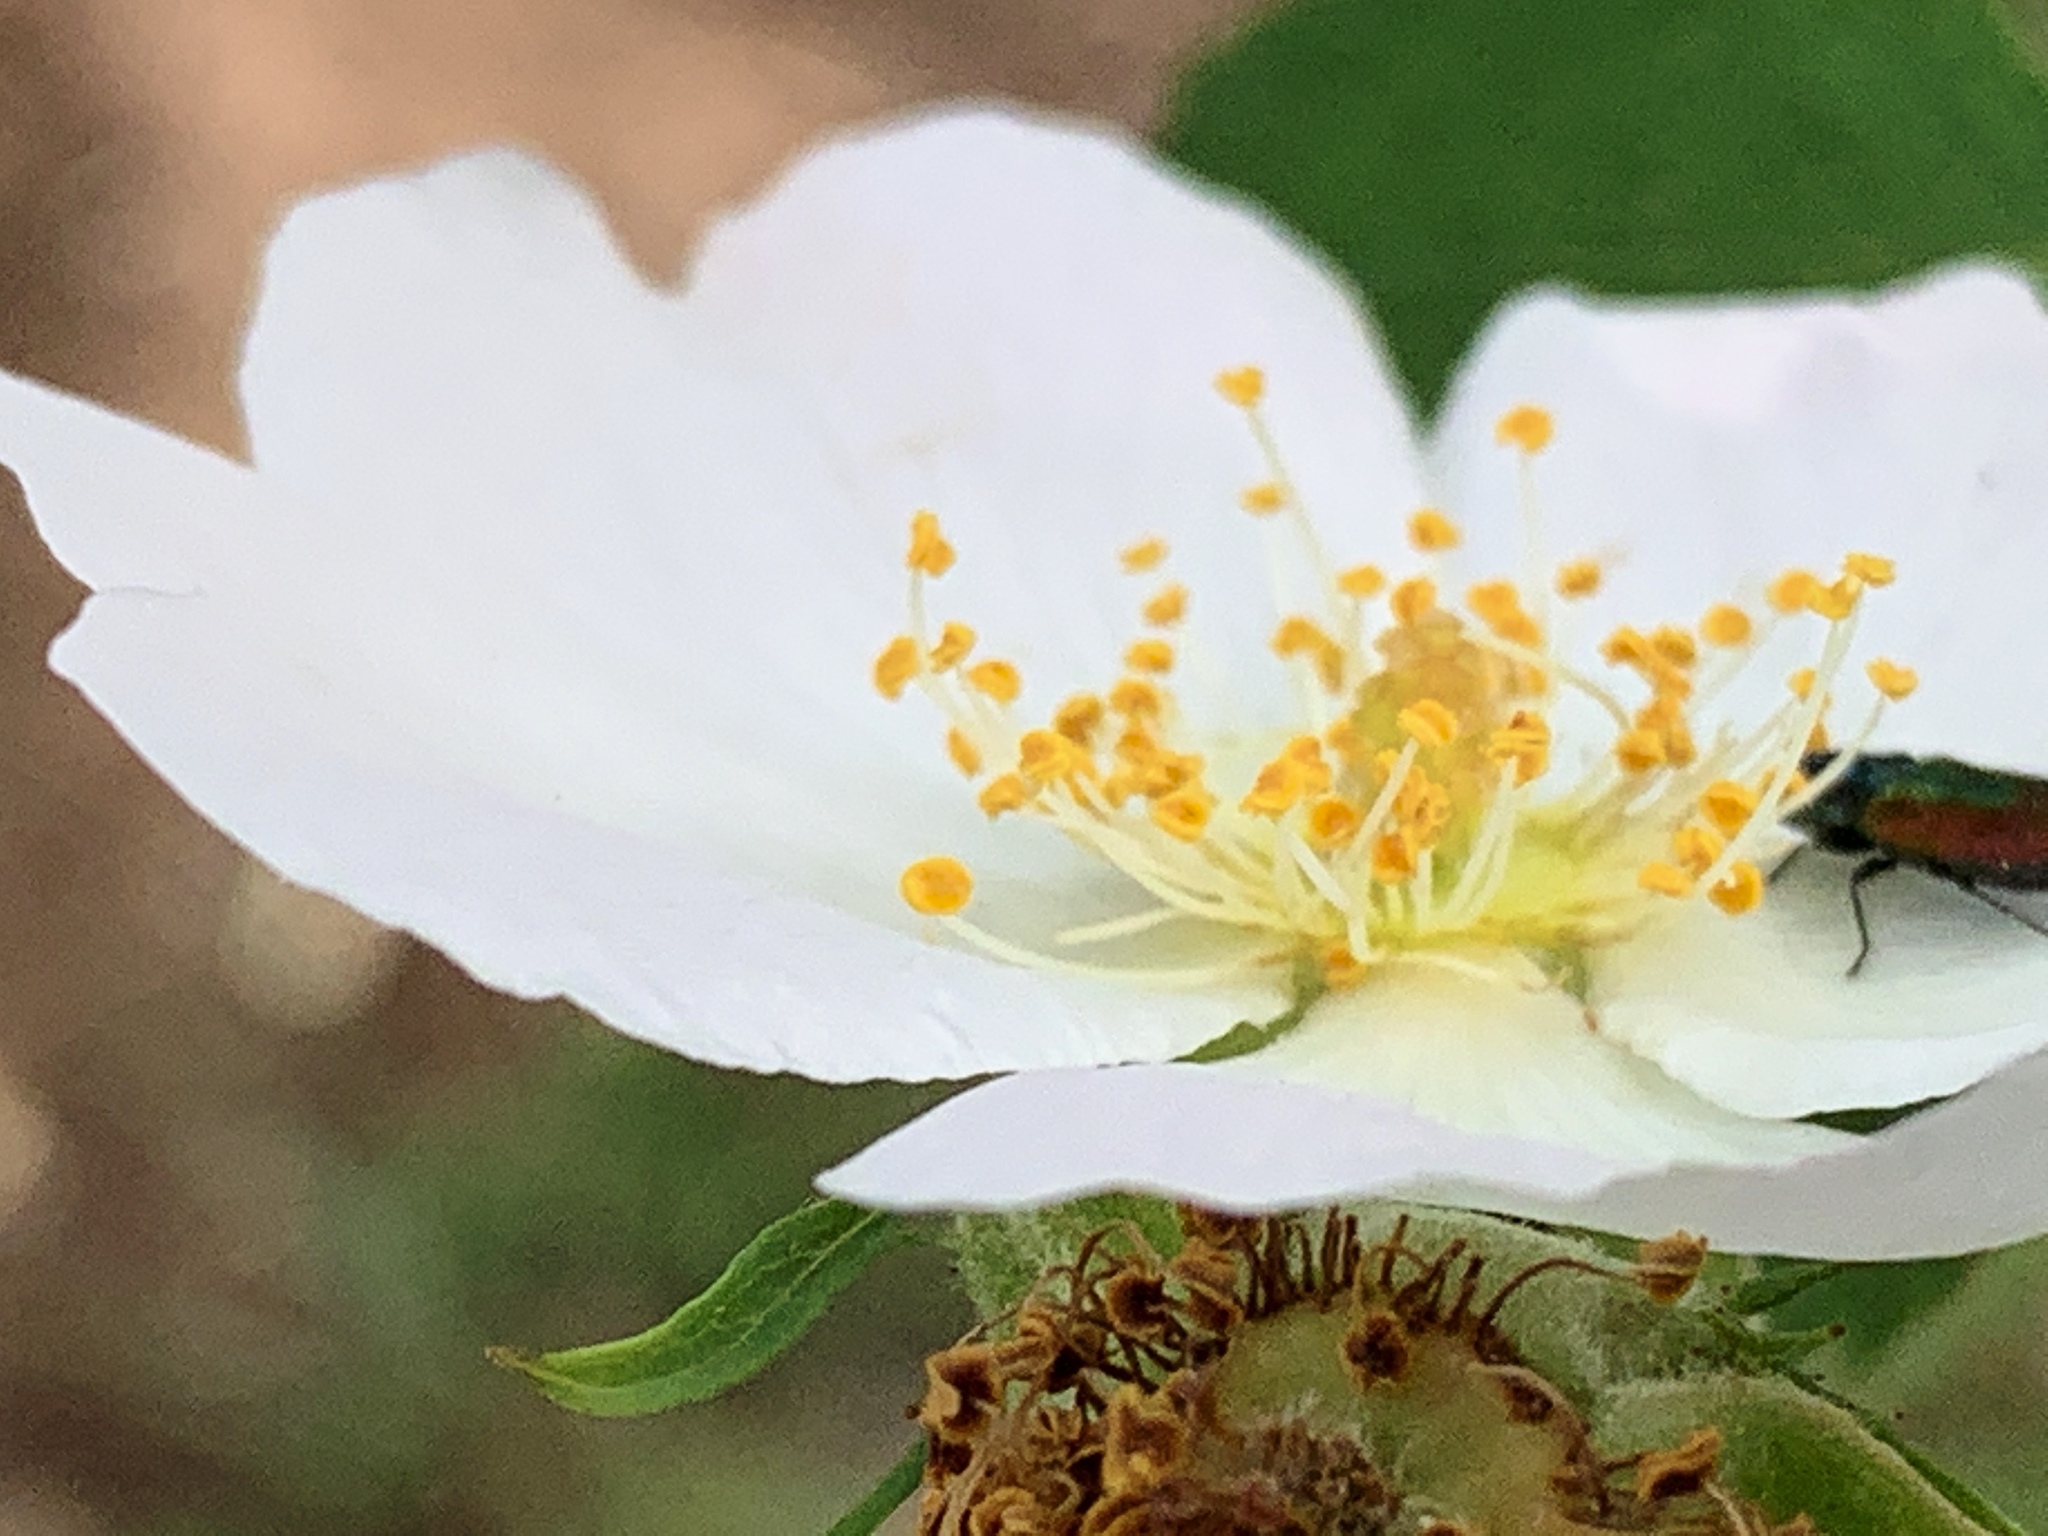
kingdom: Animalia
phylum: Arthropoda
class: Insecta
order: Coleoptera
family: Buprestidae
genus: Anthaxia
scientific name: Anthaxia fulgurans
